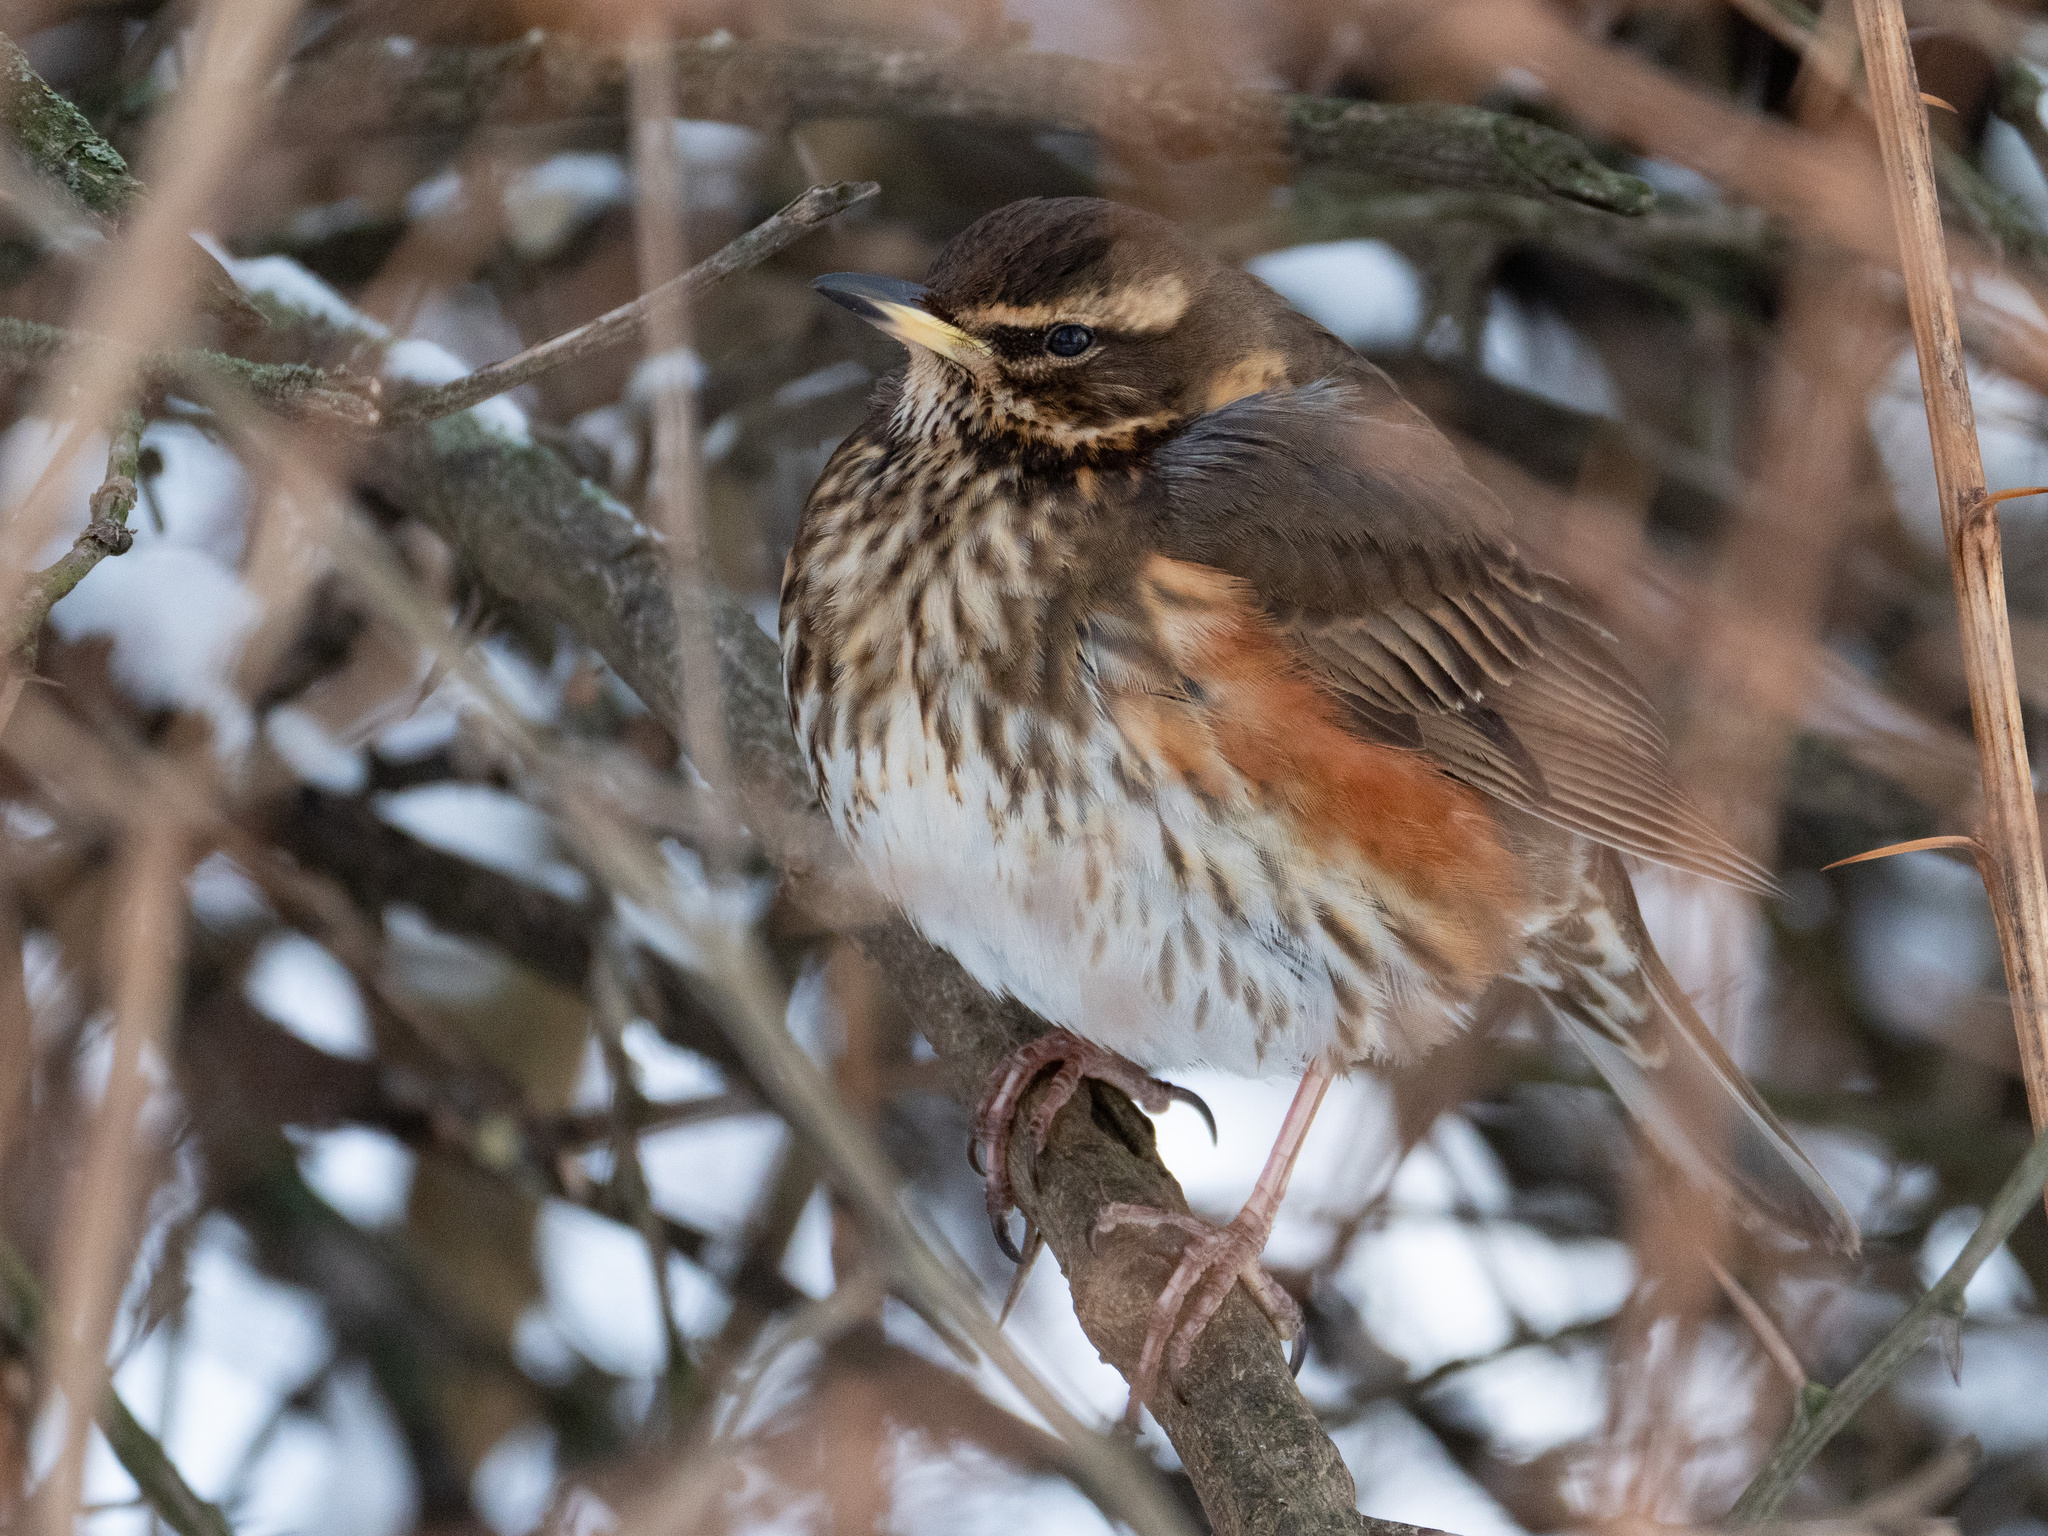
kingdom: Animalia
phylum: Chordata
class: Aves
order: Passeriformes
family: Turdidae
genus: Turdus
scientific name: Turdus iliacus
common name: Redwing
